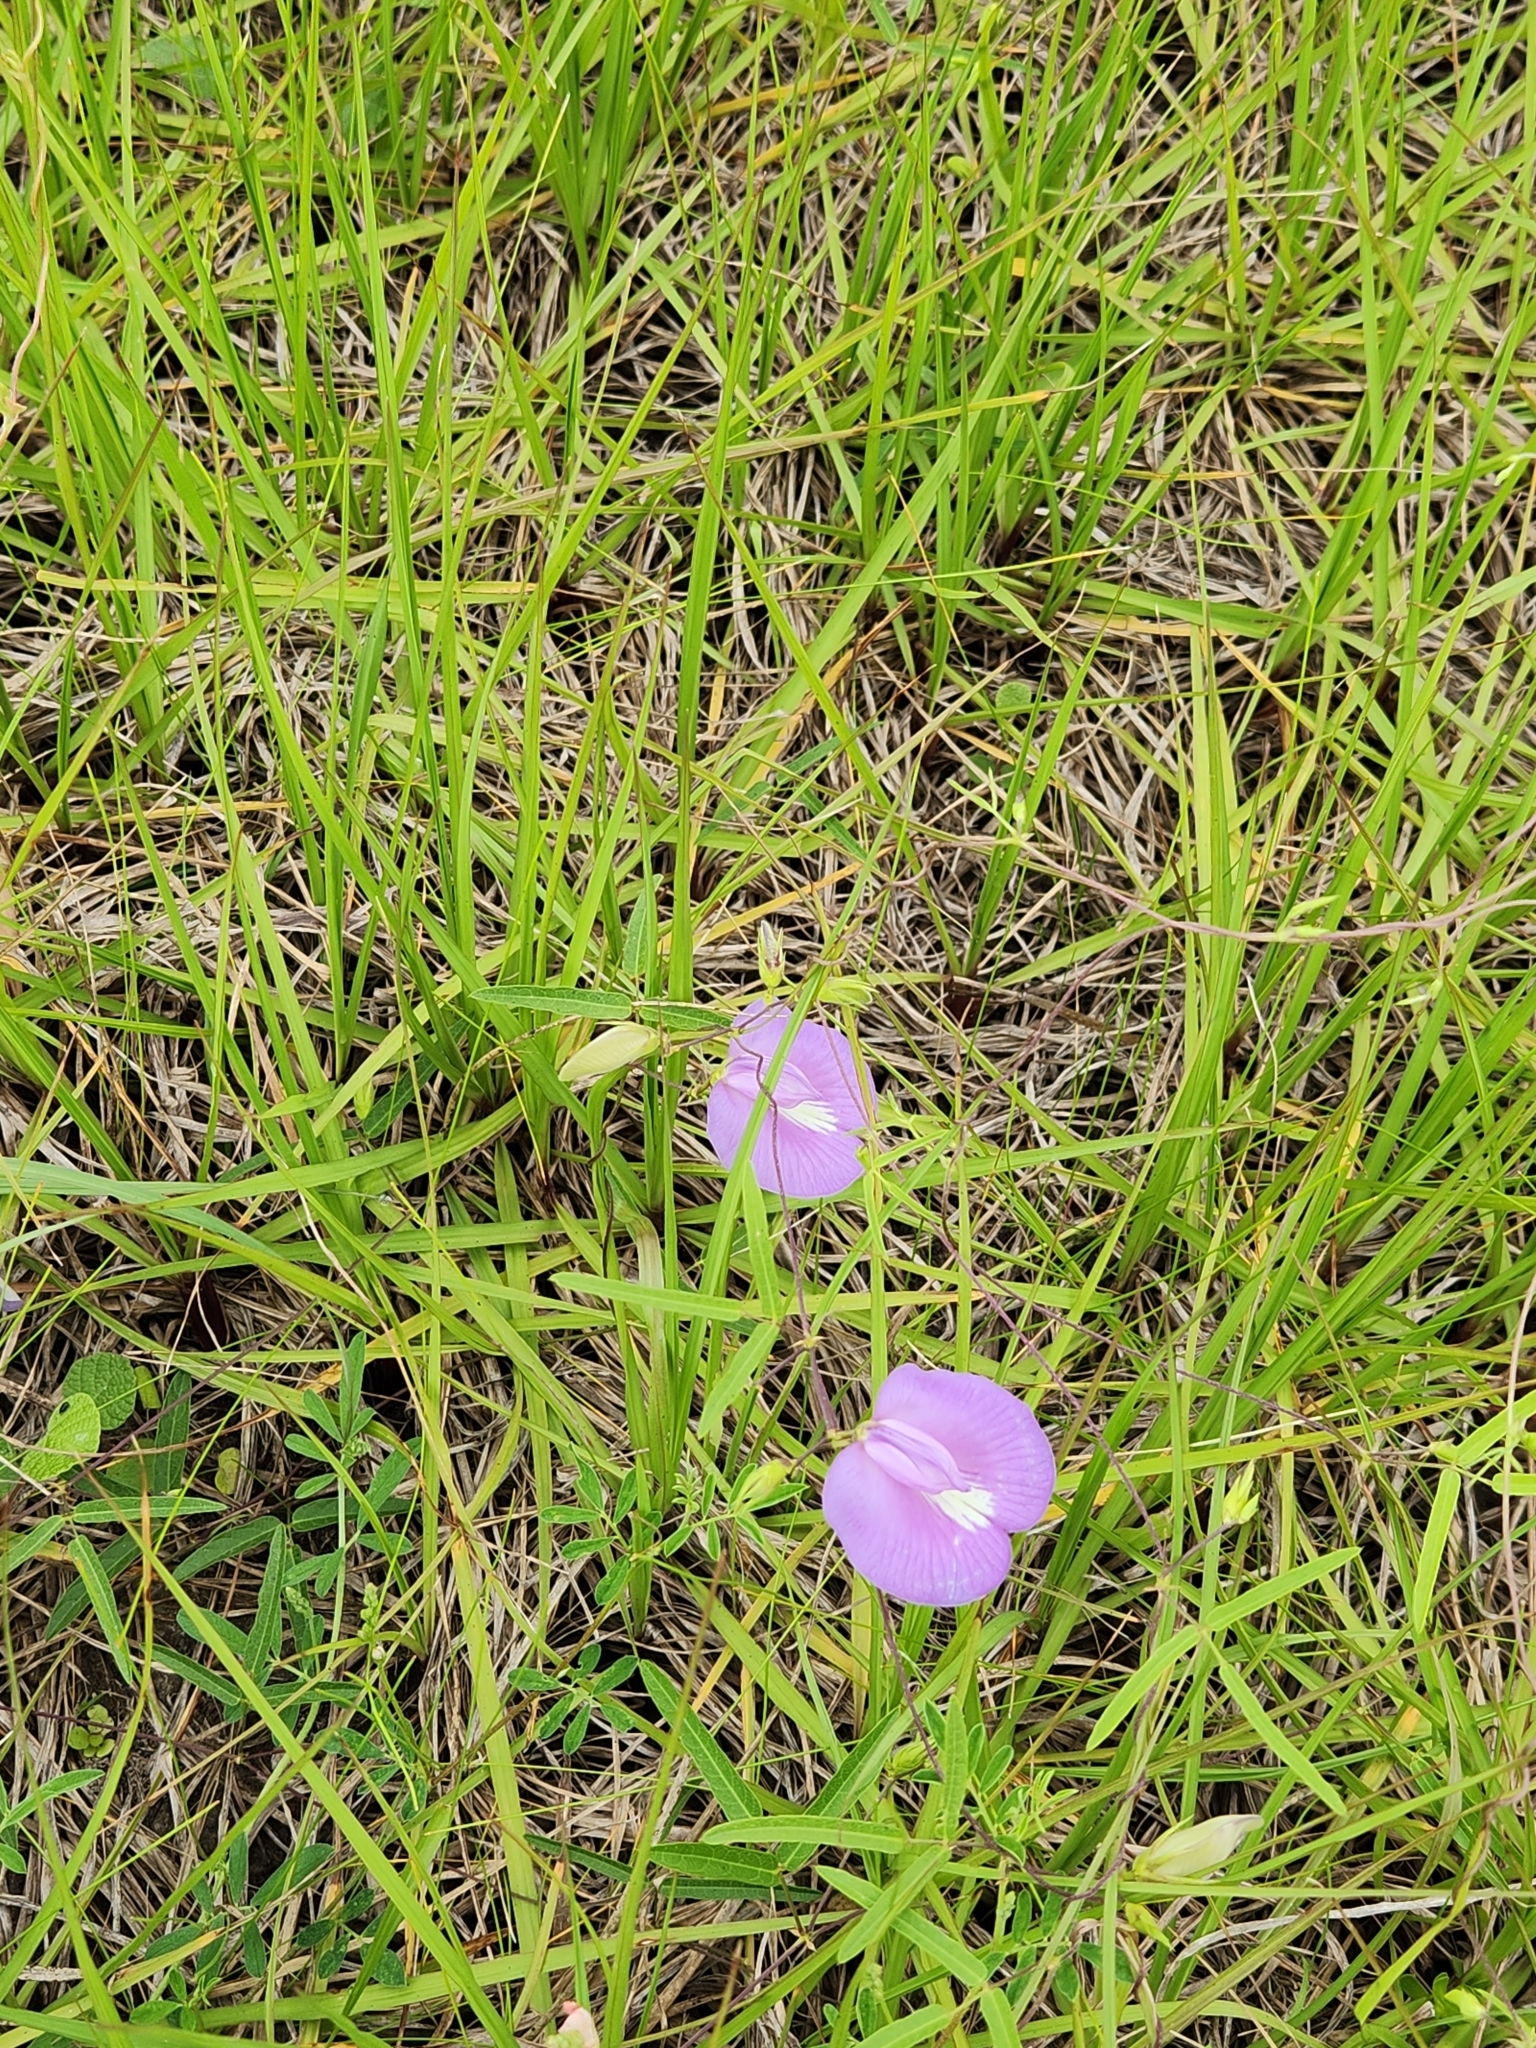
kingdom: Plantae
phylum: Tracheophyta
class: Magnoliopsida
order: Fabales
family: Fabaceae
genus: Centrosema
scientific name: Centrosema virginianum
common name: Butterfly-pea
